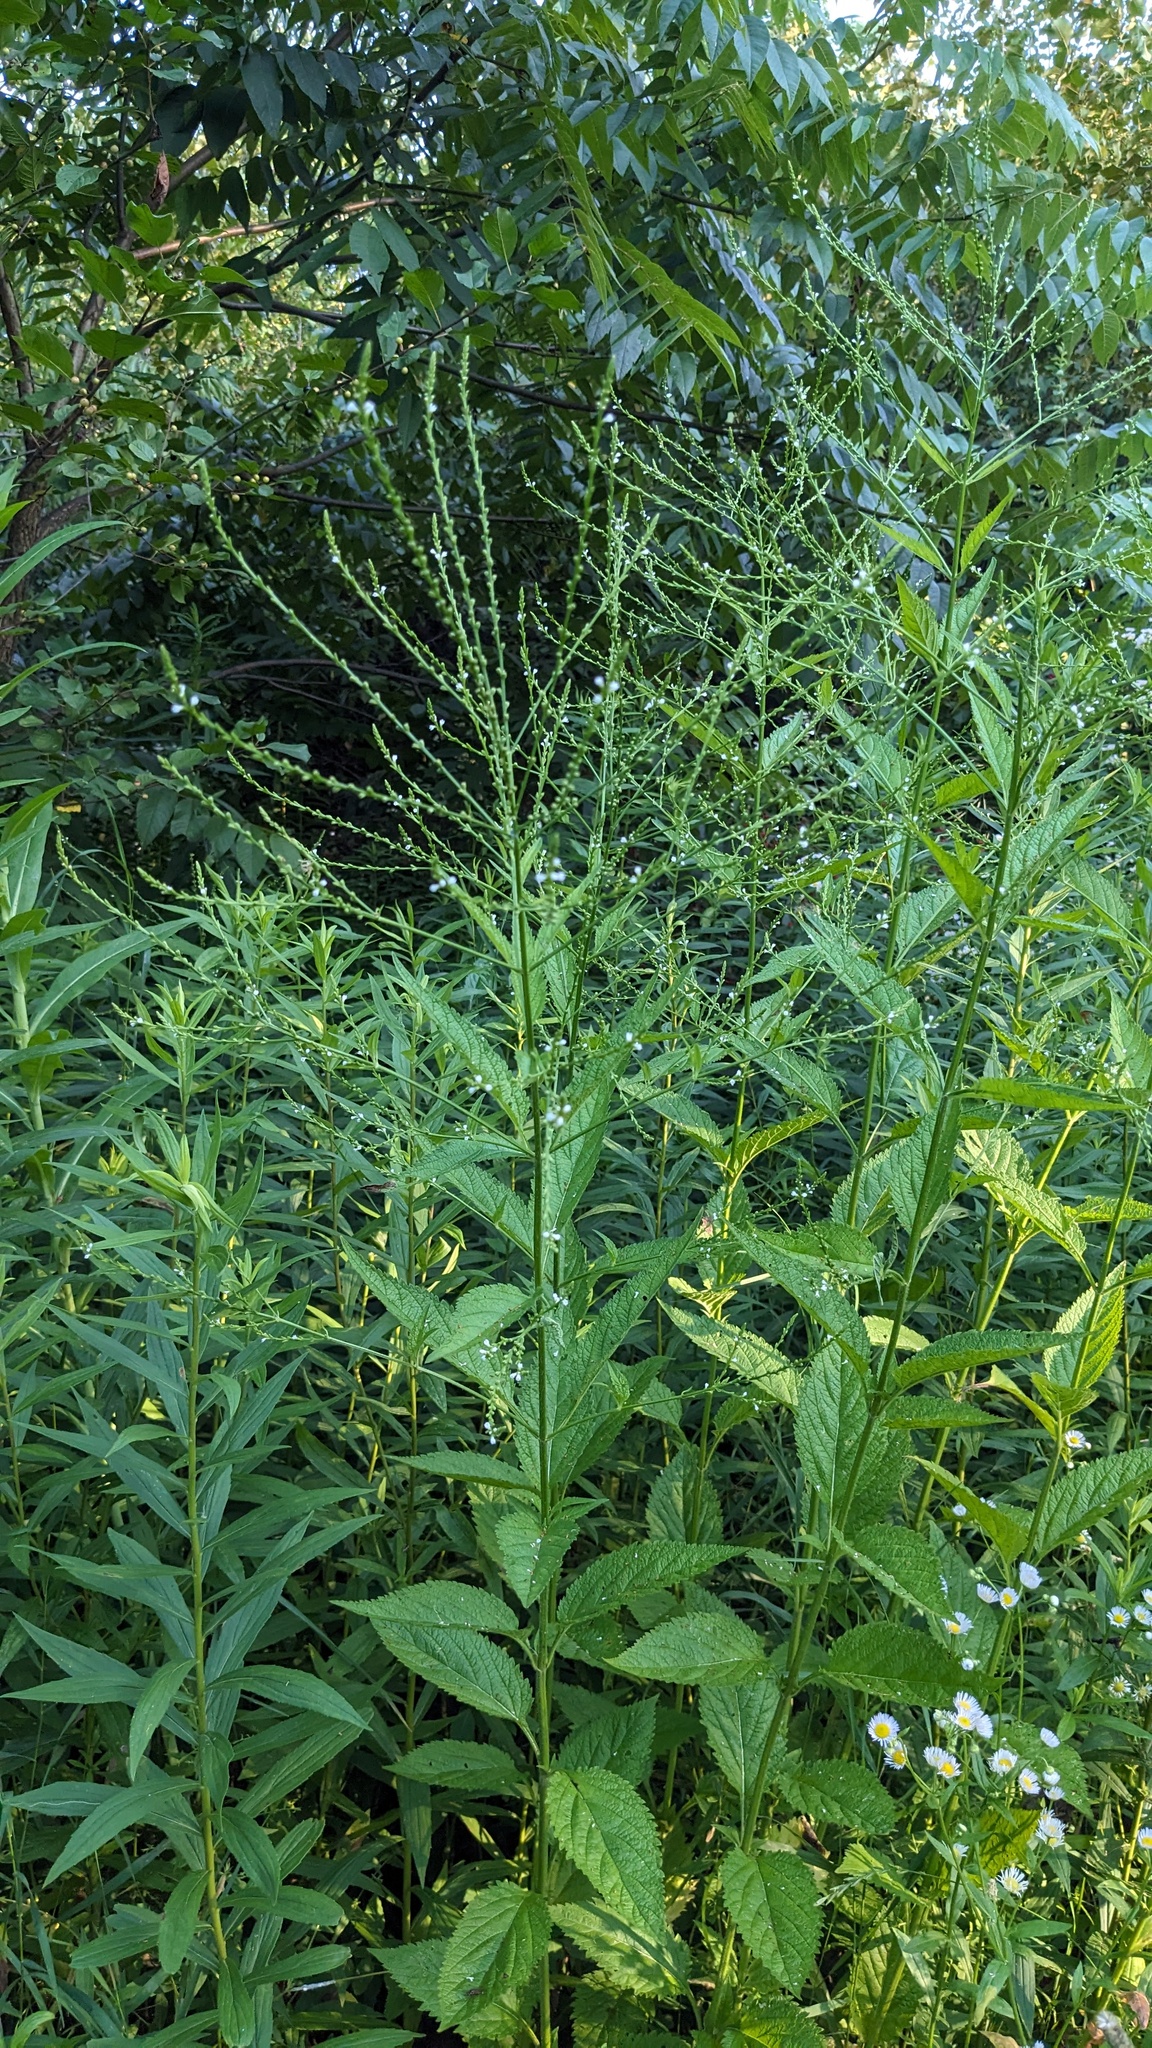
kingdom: Plantae
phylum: Tracheophyta
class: Magnoliopsida
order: Lamiales
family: Verbenaceae
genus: Verbena
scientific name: Verbena urticifolia
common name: Nettle-leaved vervain
